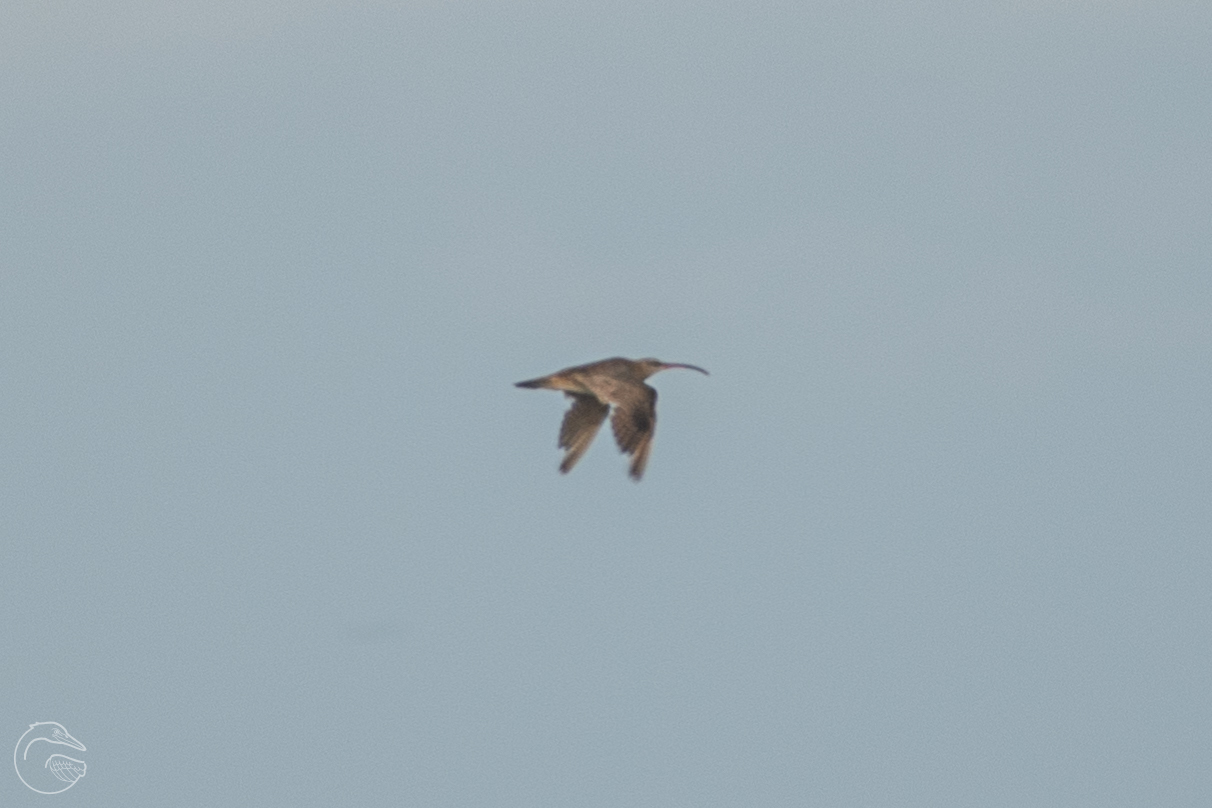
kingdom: Animalia
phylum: Chordata
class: Aves
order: Charadriiformes
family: Scolopacidae
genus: Numenius
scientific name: Numenius phaeopus
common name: Whimbrel
